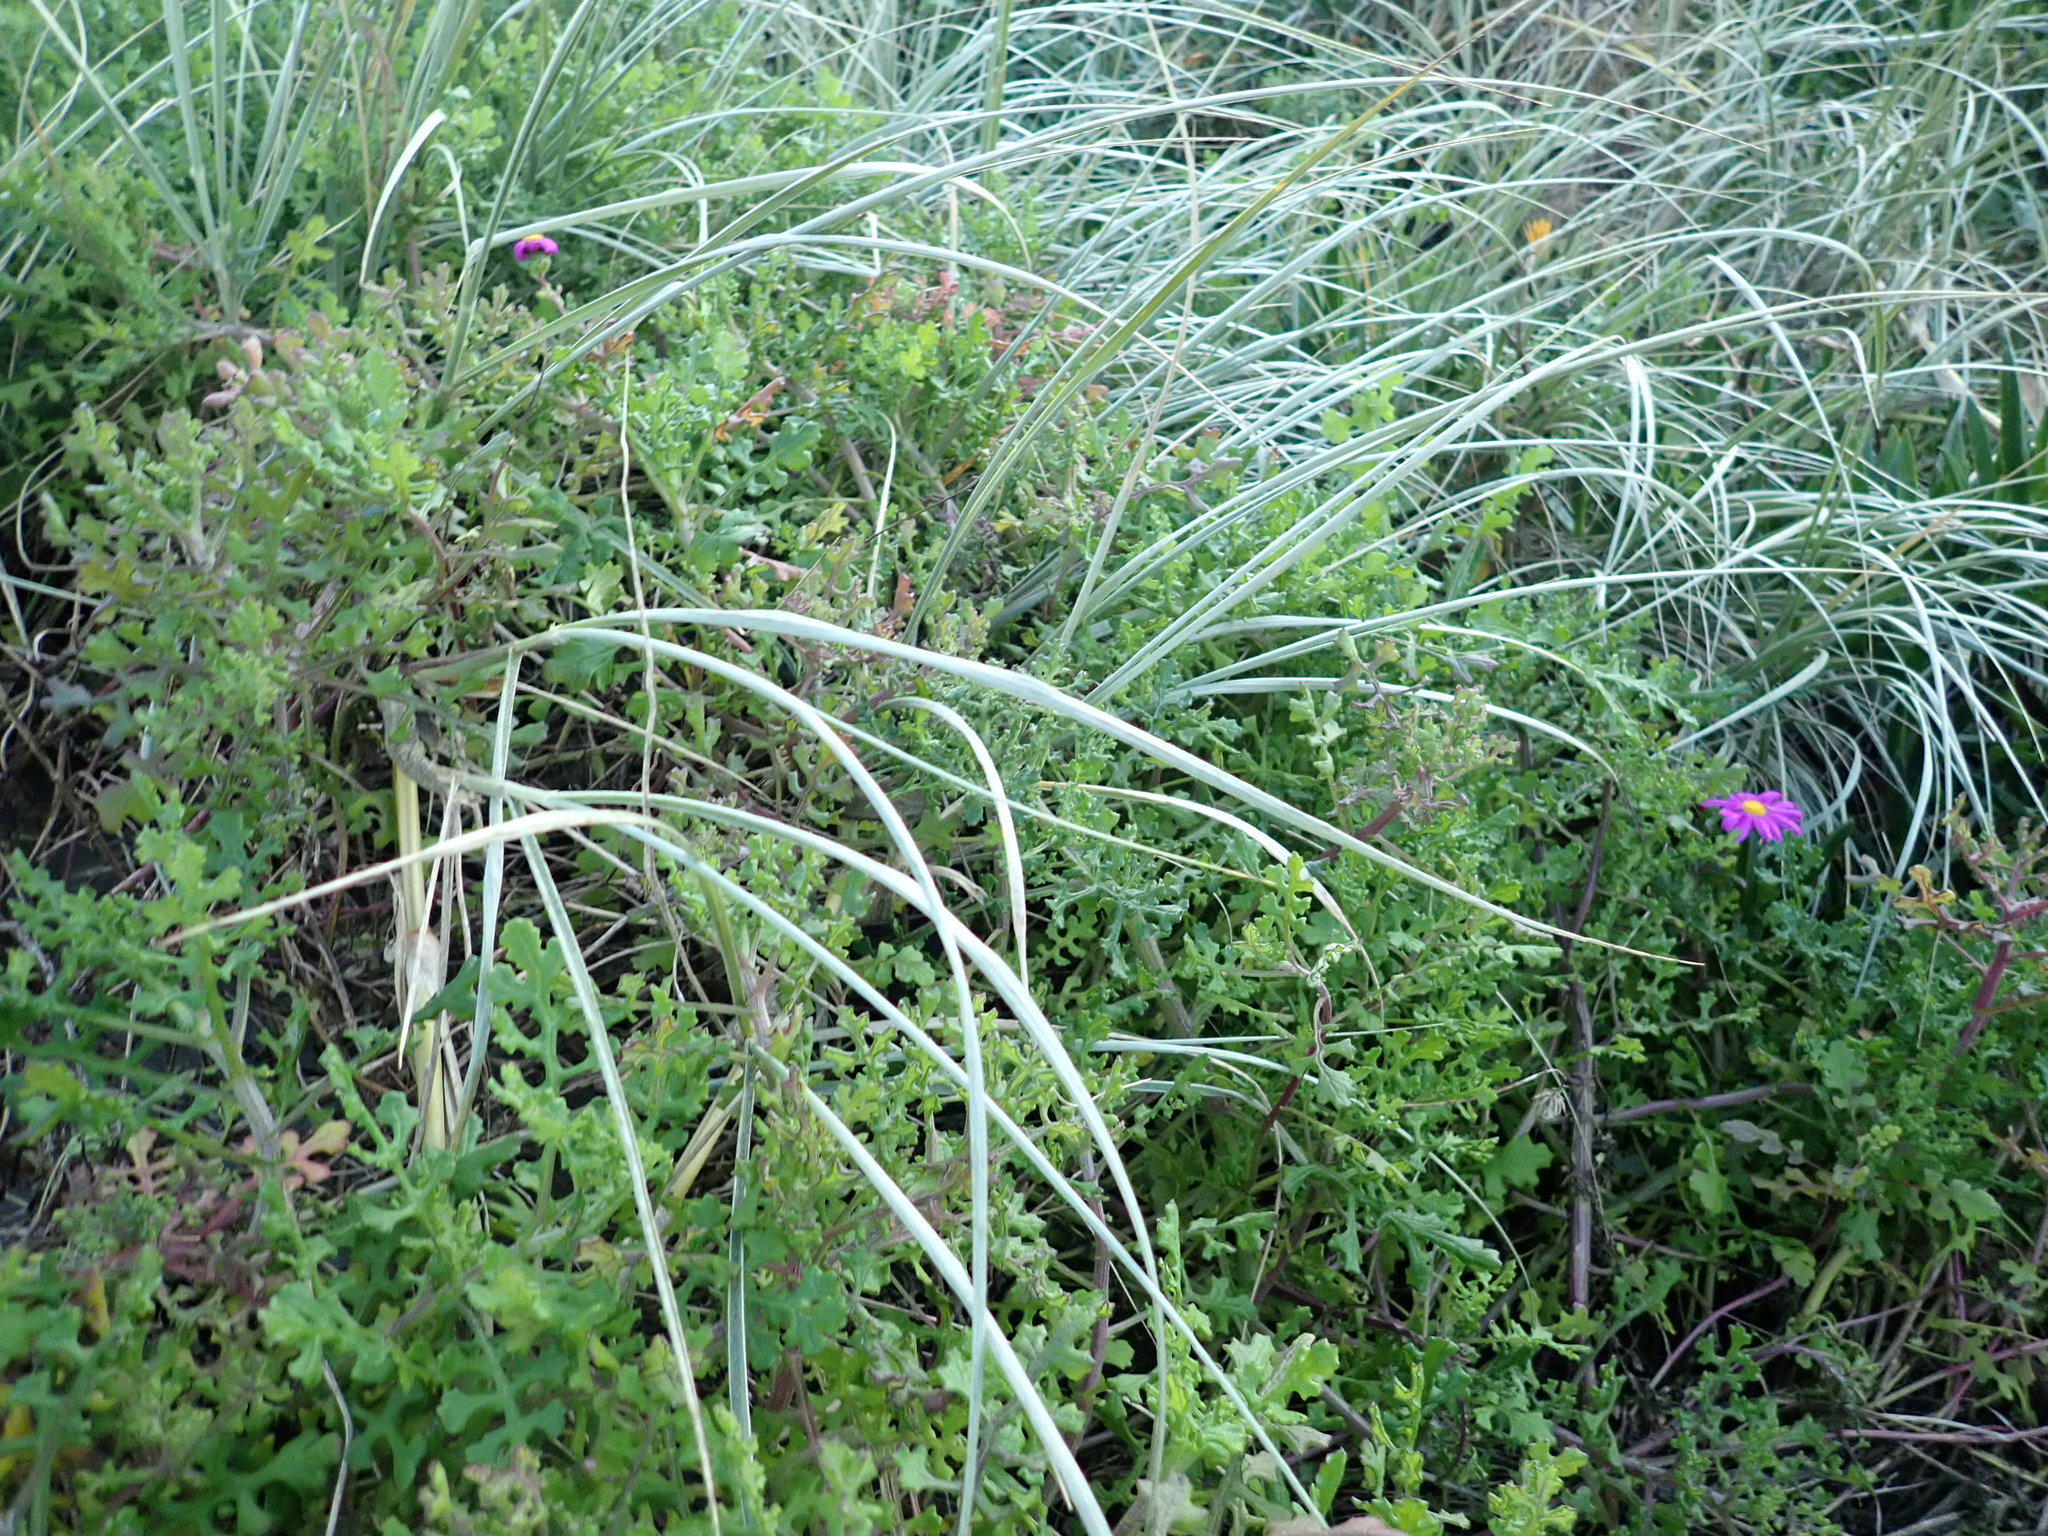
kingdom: Plantae
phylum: Tracheophyta
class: Magnoliopsida
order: Asterales
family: Asteraceae
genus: Senecio
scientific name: Senecio elegans
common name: Purple groundsel
